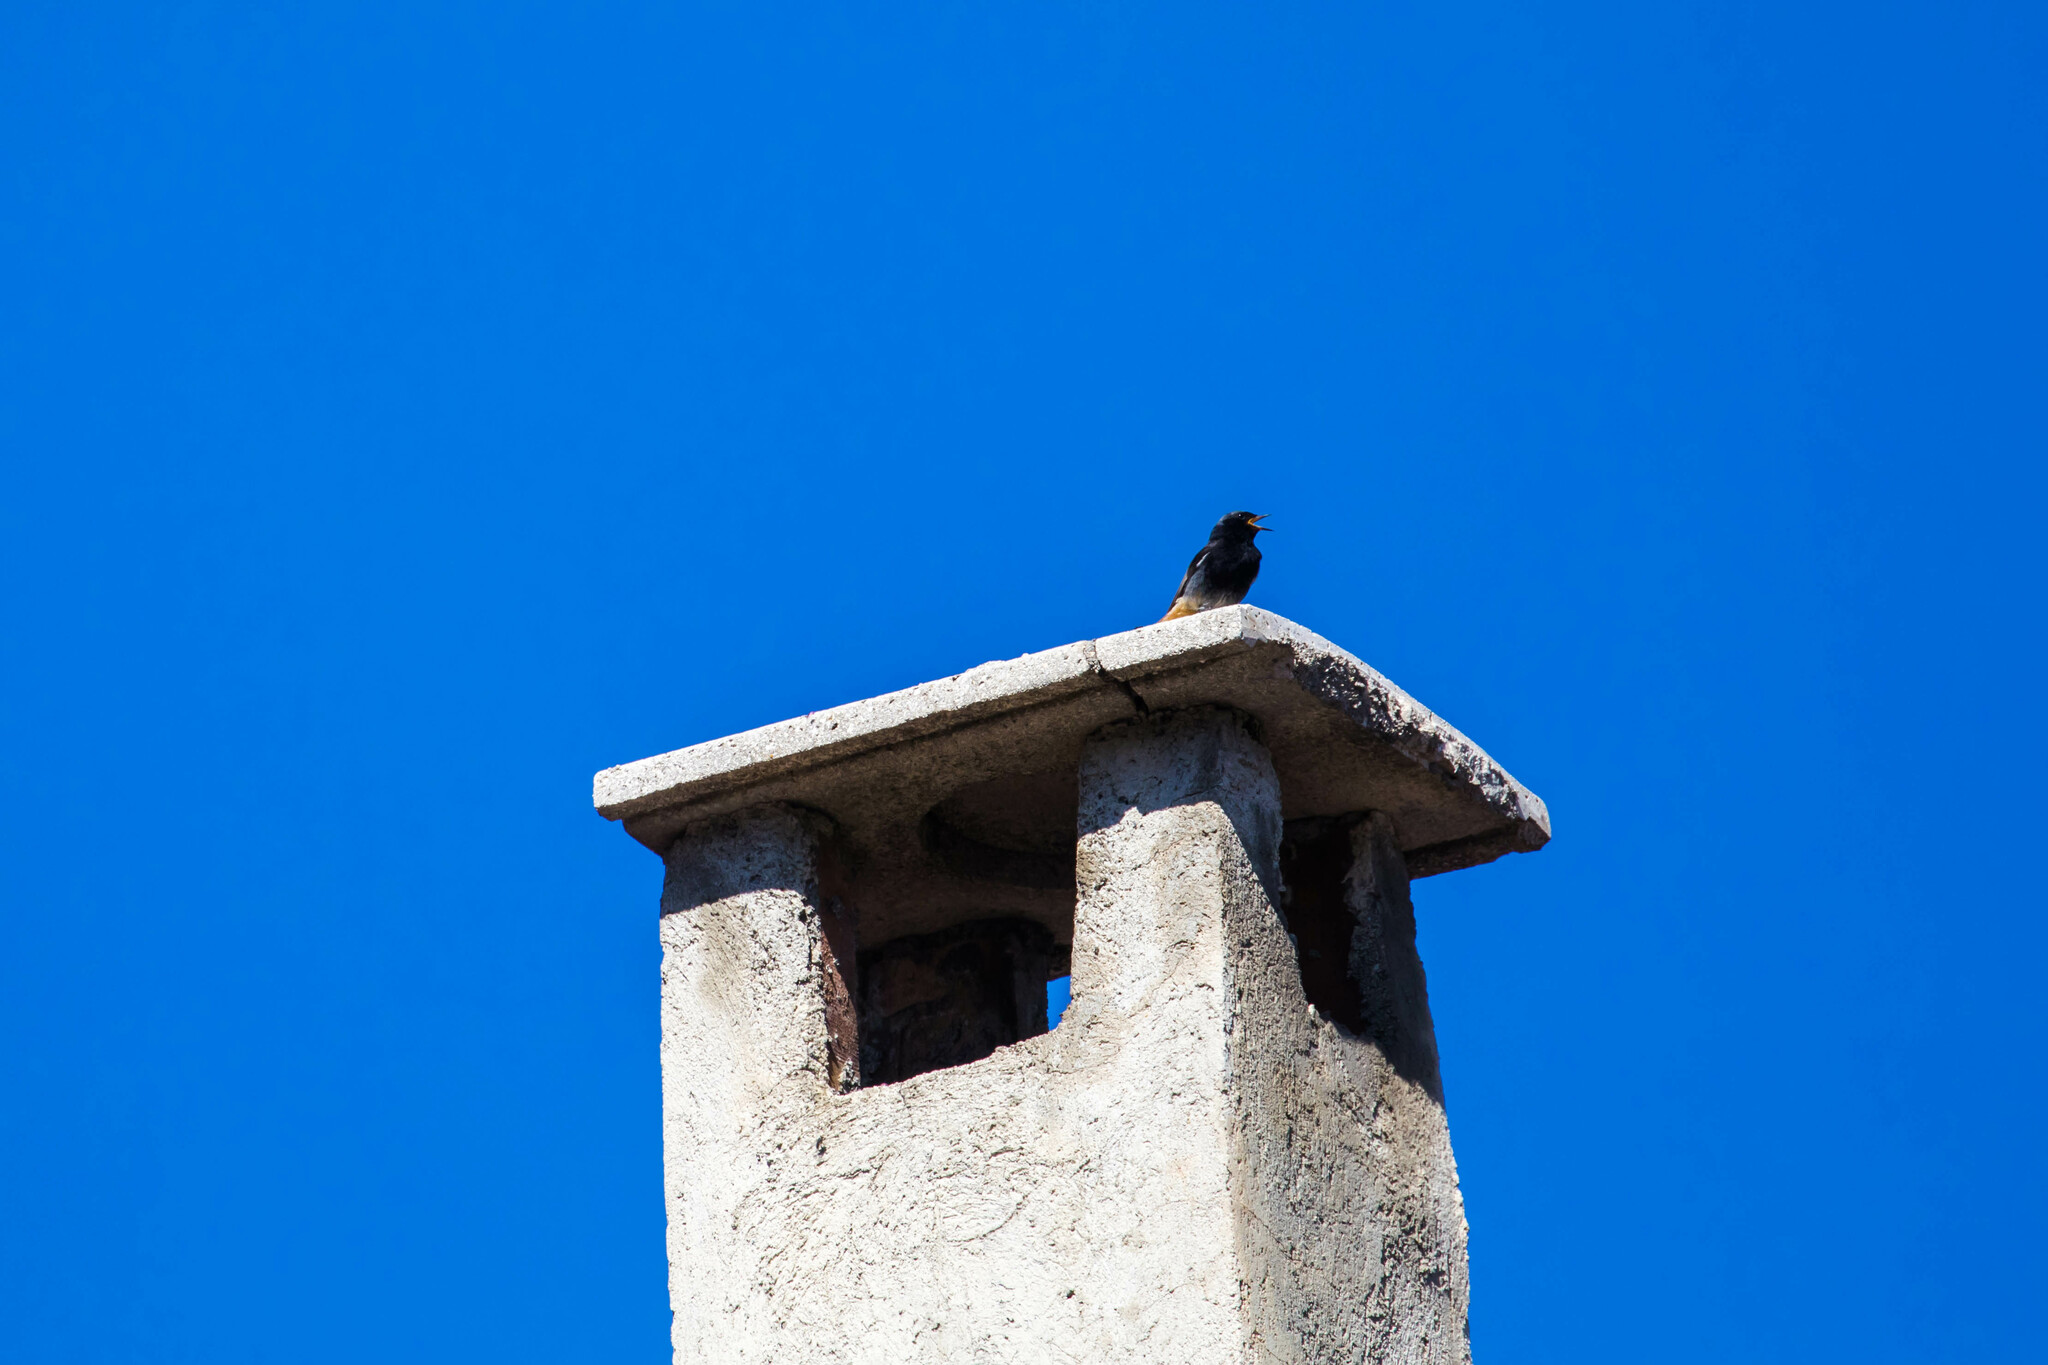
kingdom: Animalia
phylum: Chordata
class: Aves
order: Passeriformes
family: Muscicapidae
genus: Phoenicurus
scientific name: Phoenicurus ochruros
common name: Black redstart
